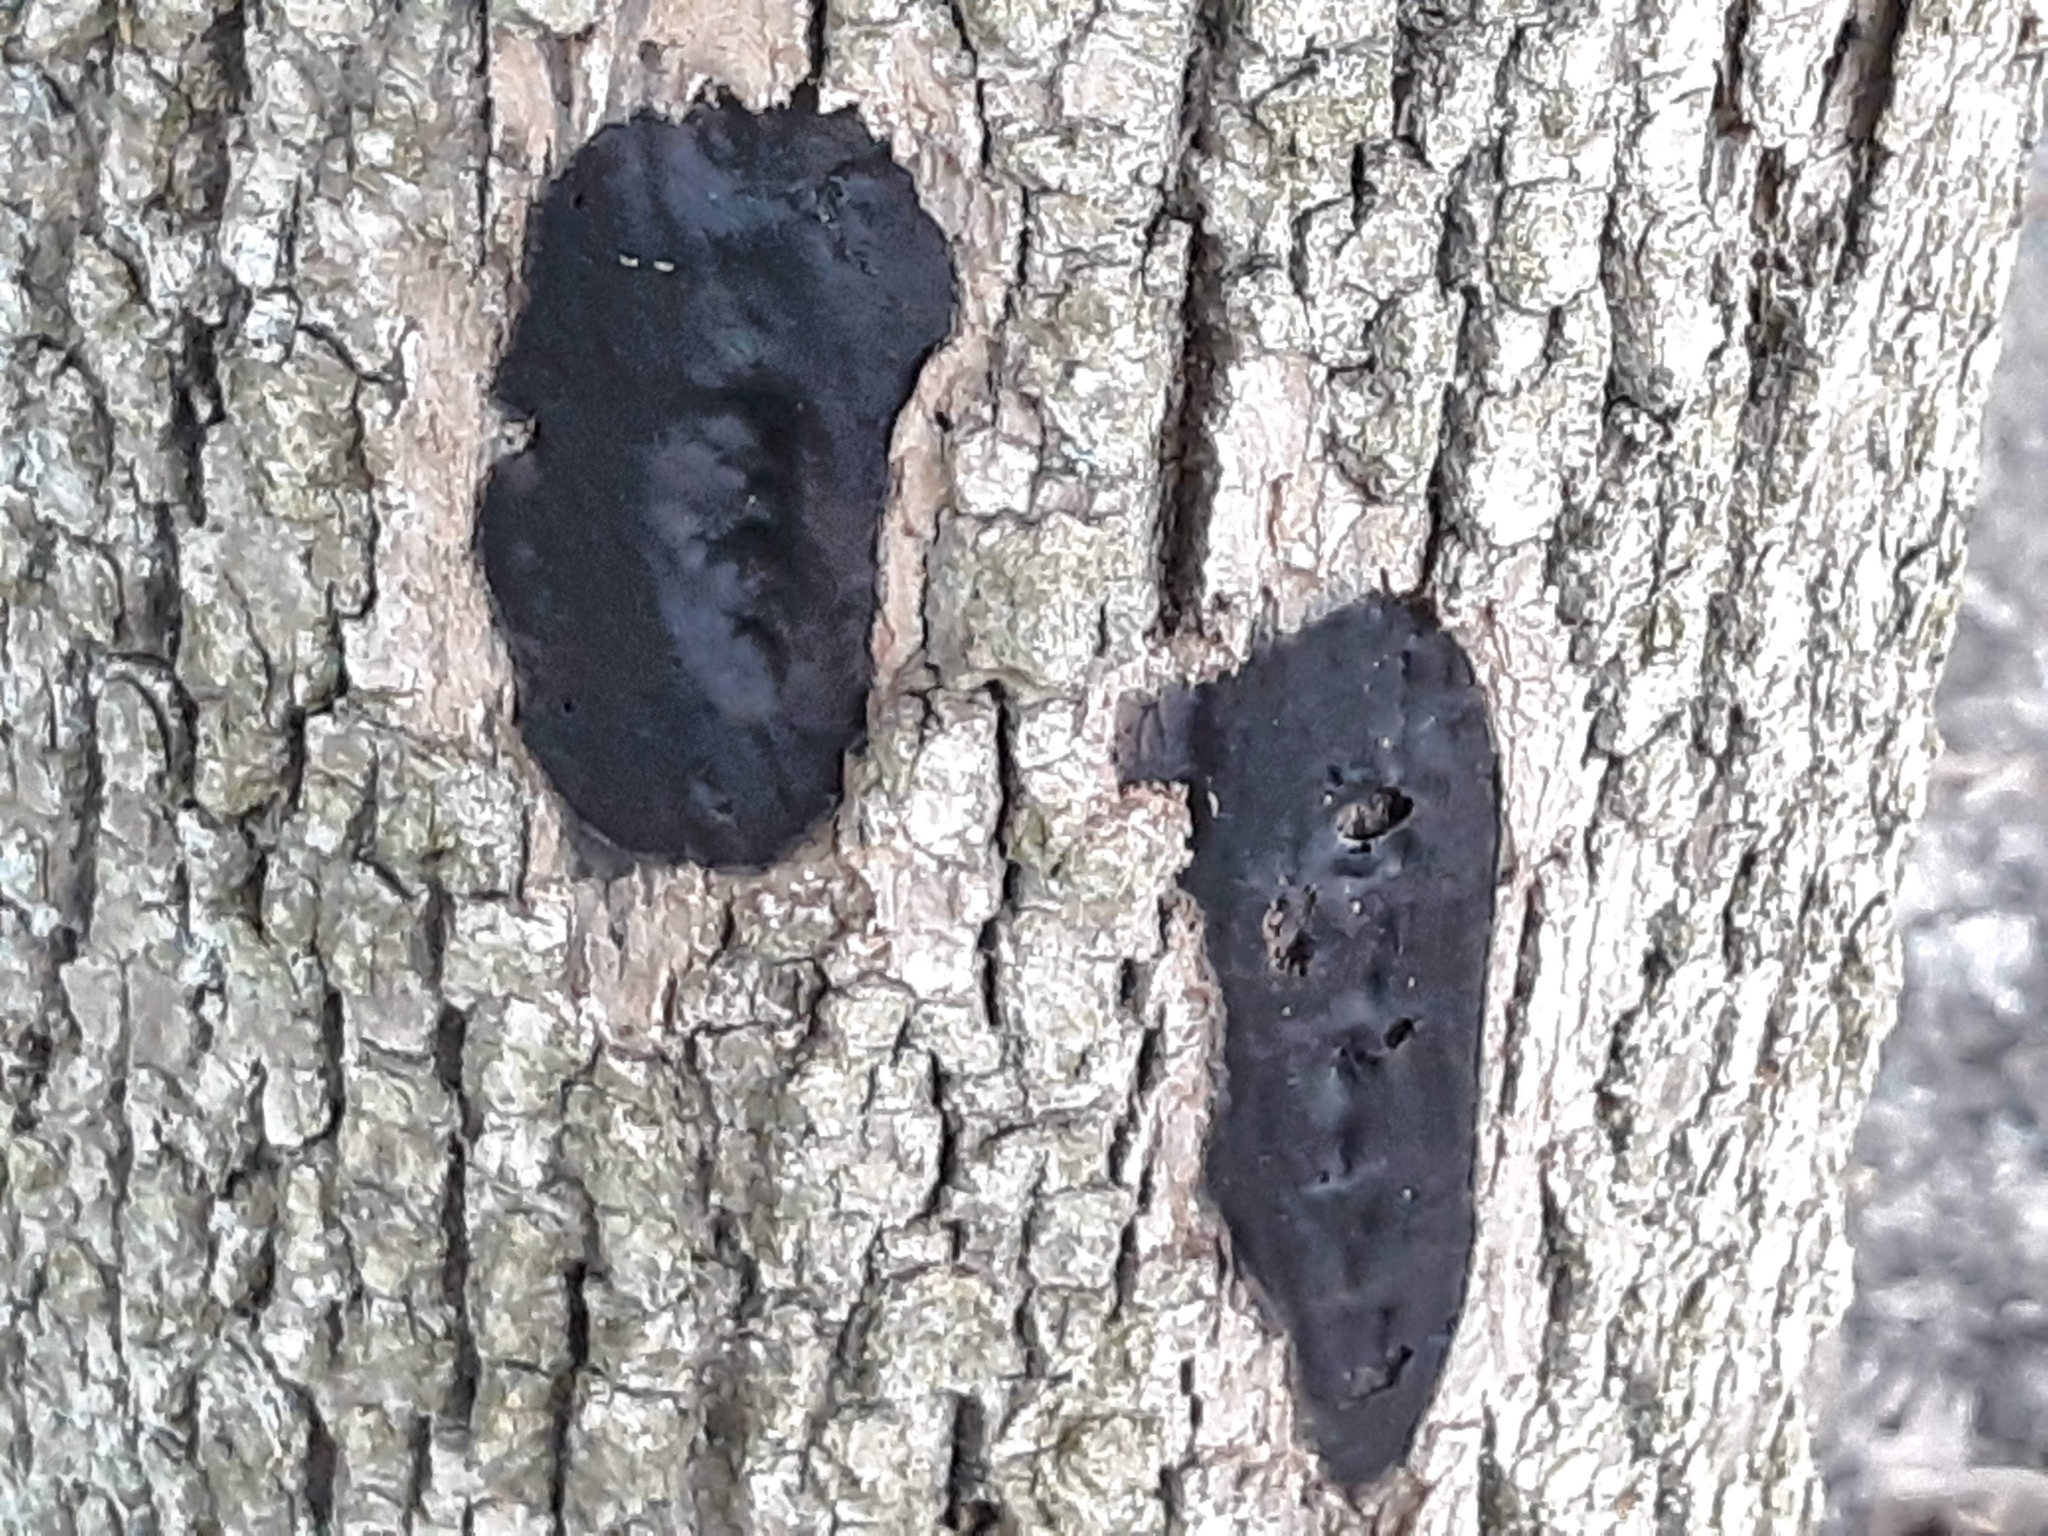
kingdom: Fungi
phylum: Ascomycota
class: Sordariomycetes
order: Xylariales
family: Diatrypaceae
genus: Diatrype
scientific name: Diatrype stigma
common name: Common tarcrust
